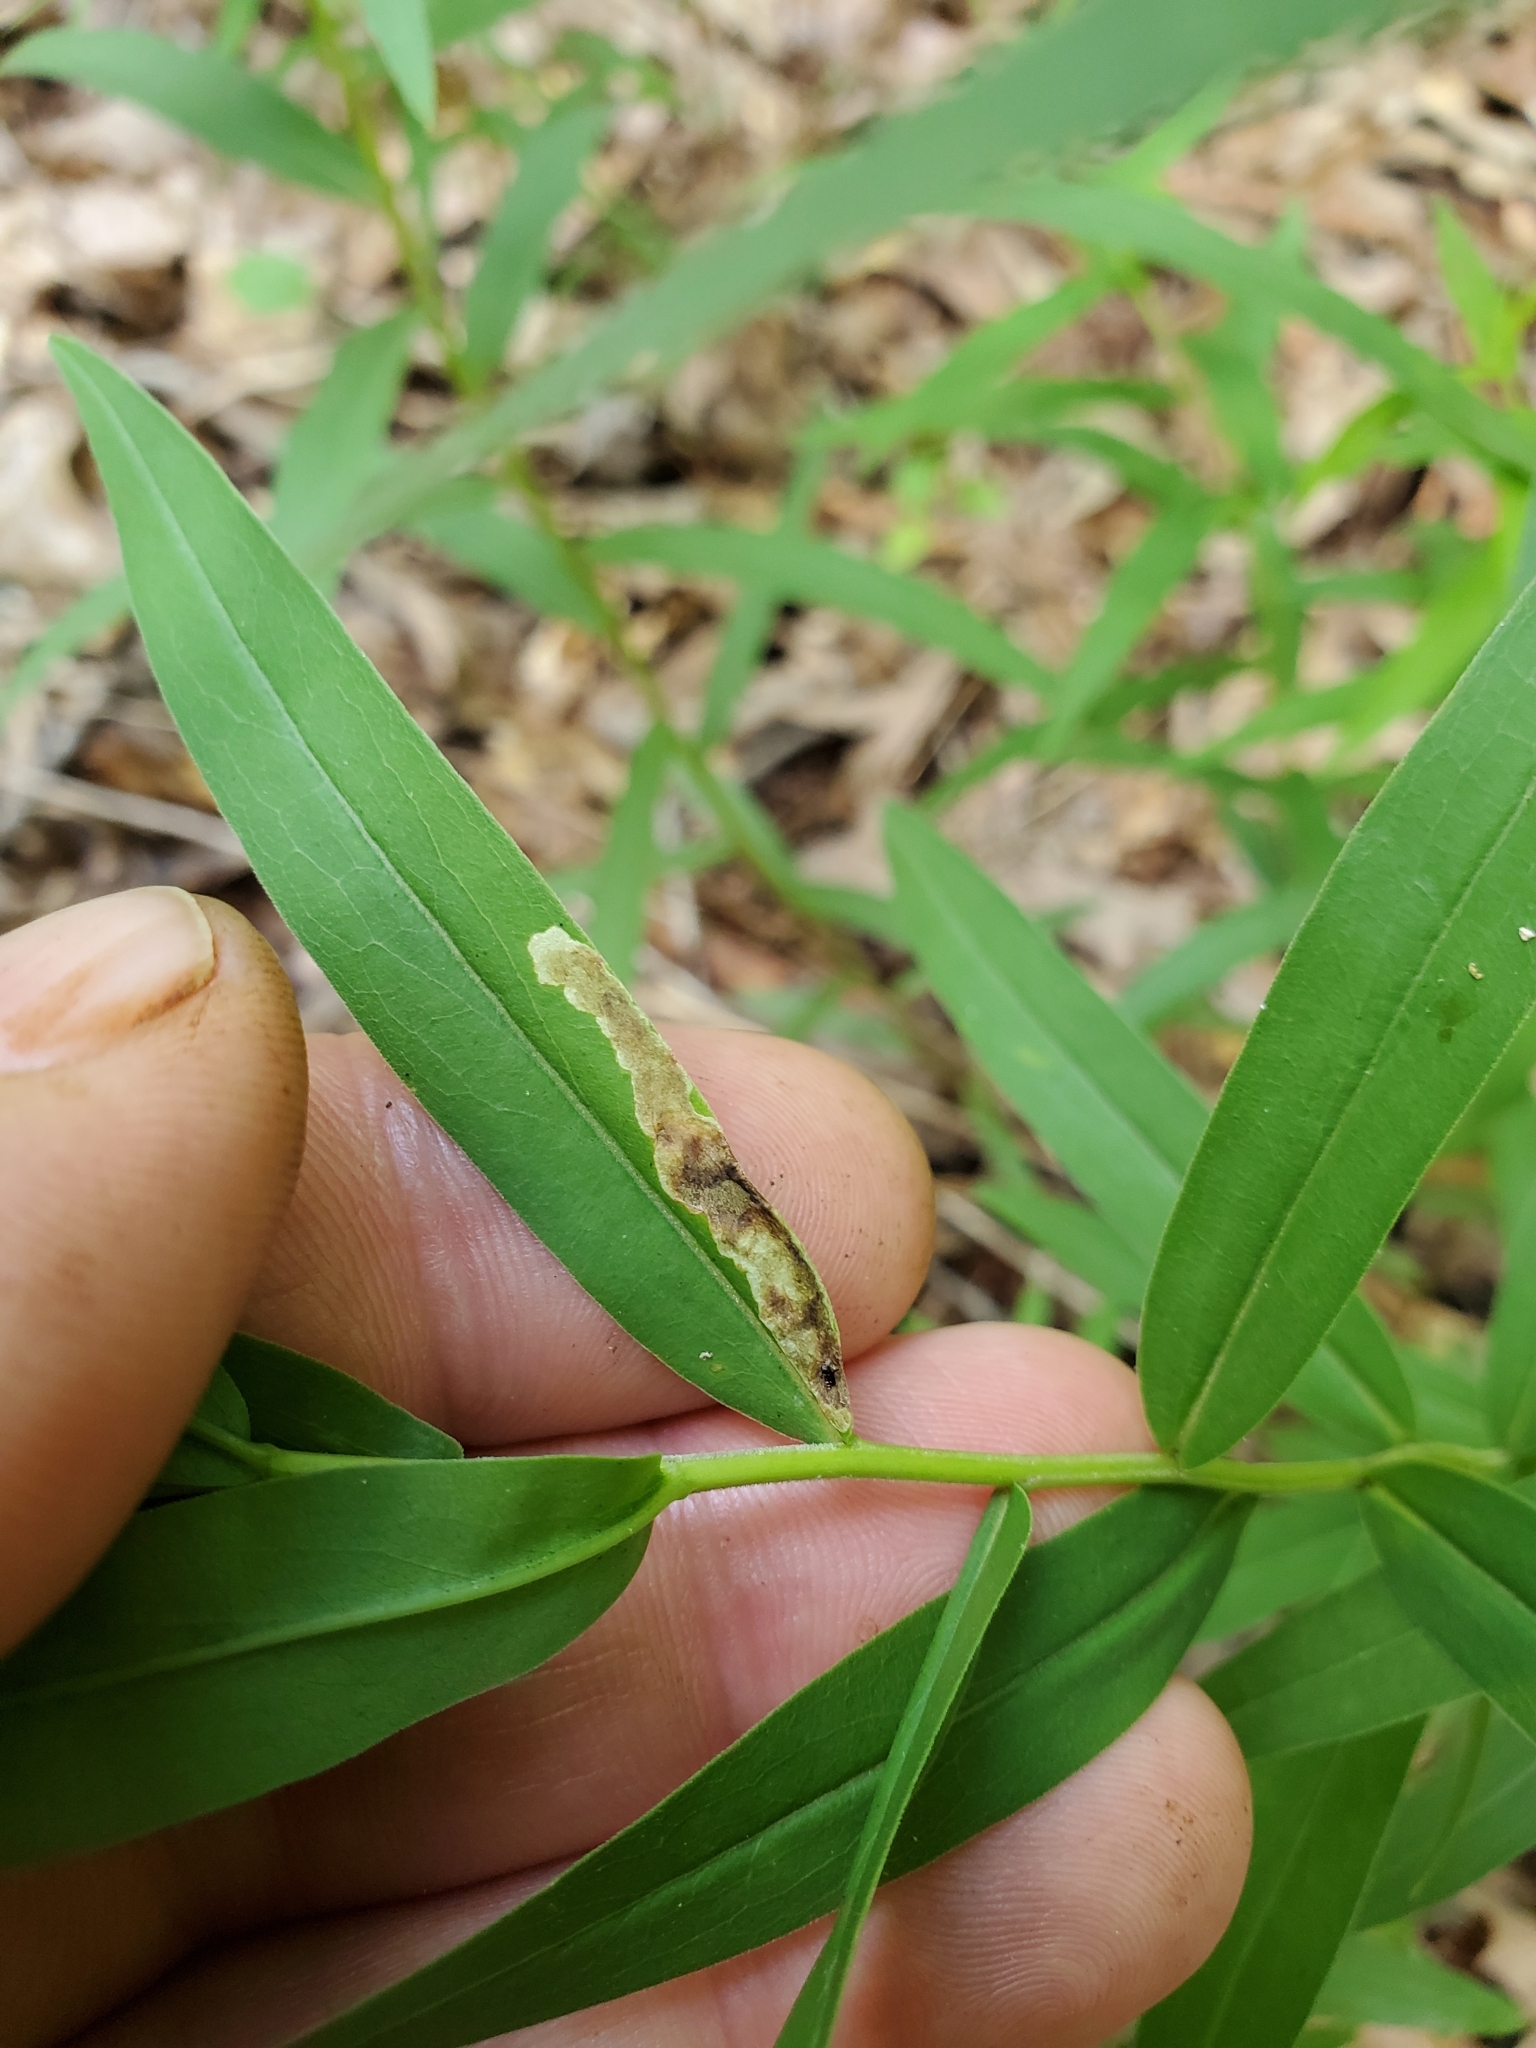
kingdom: Animalia
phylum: Arthropoda
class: Insecta
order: Diptera
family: Agromyzidae
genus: Calycomyza
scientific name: Calycomyza solidaginis
